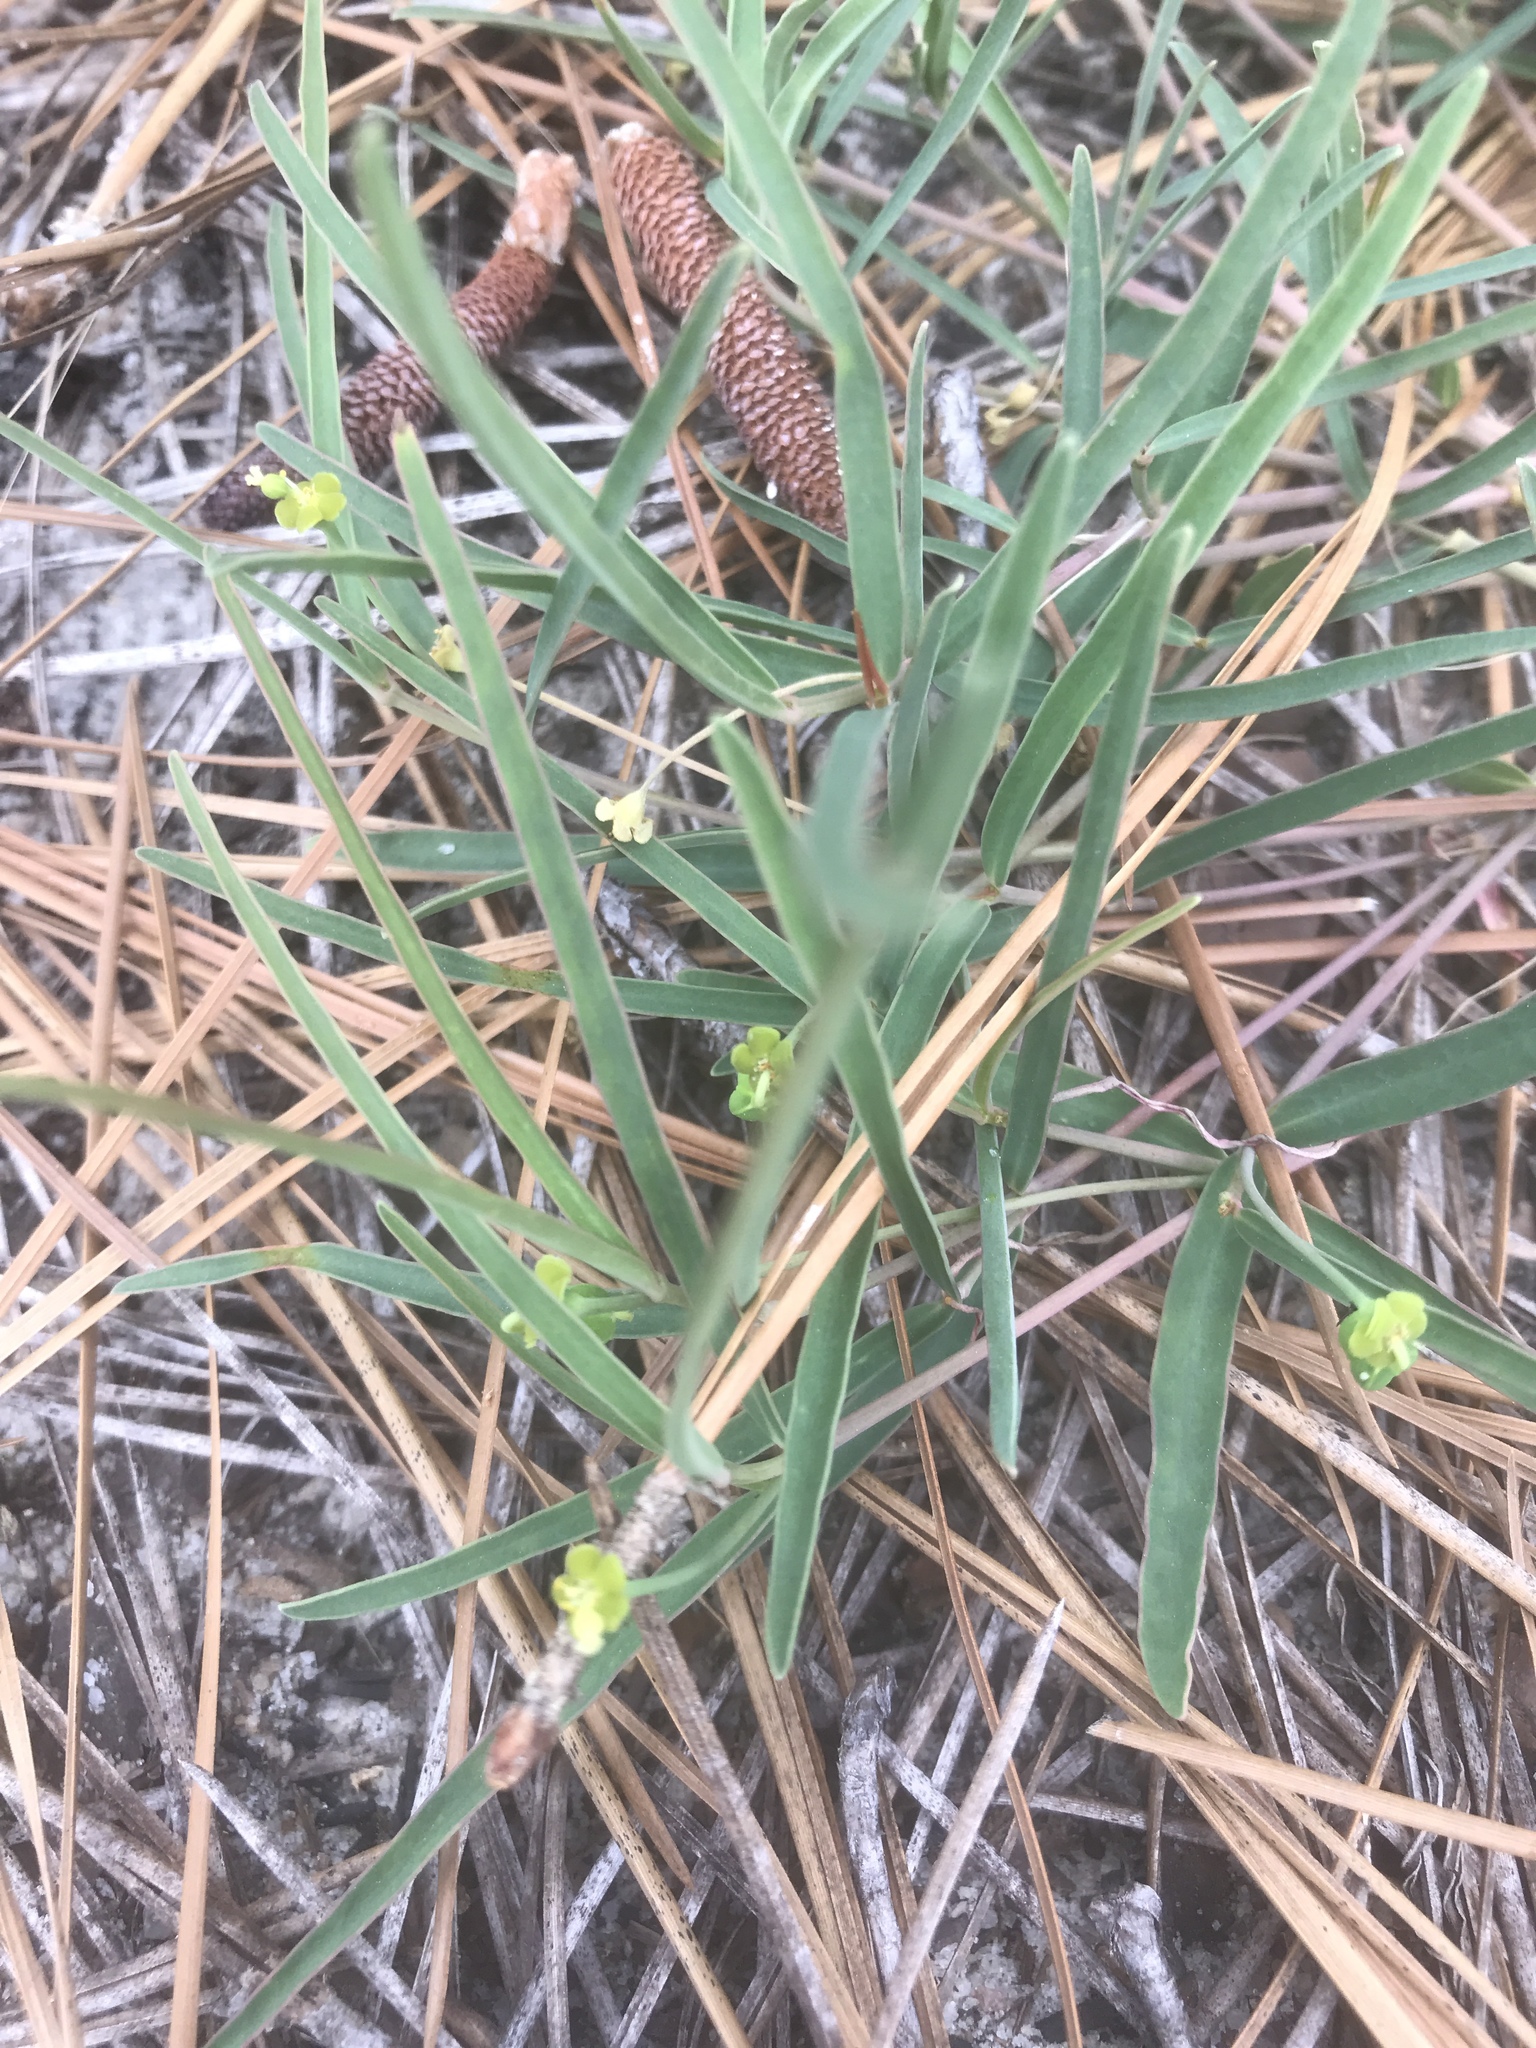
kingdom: Plantae
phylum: Tracheophyta
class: Magnoliopsida
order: Malpighiales
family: Euphorbiaceae
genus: Euphorbia
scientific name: Euphorbia ipecacuanhae
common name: Carolina ipecac
